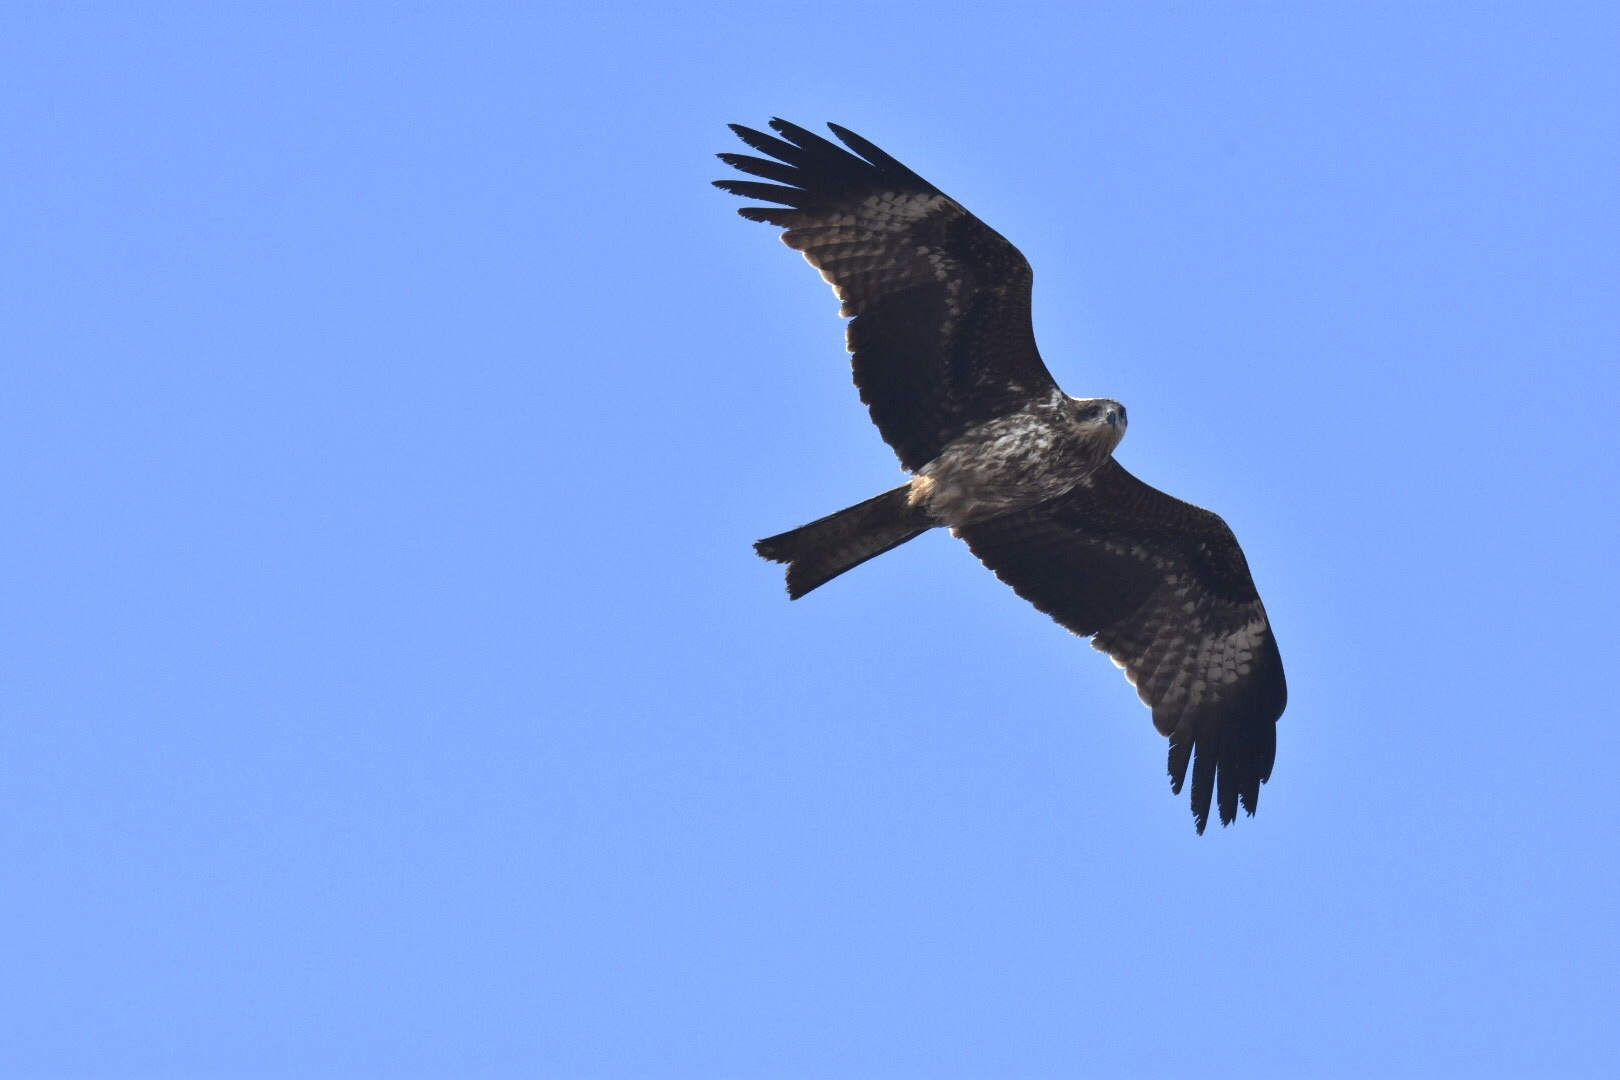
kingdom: Animalia
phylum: Chordata
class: Aves
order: Accipitriformes
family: Accipitridae
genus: Milvus
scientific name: Milvus migrans
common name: Black kite
